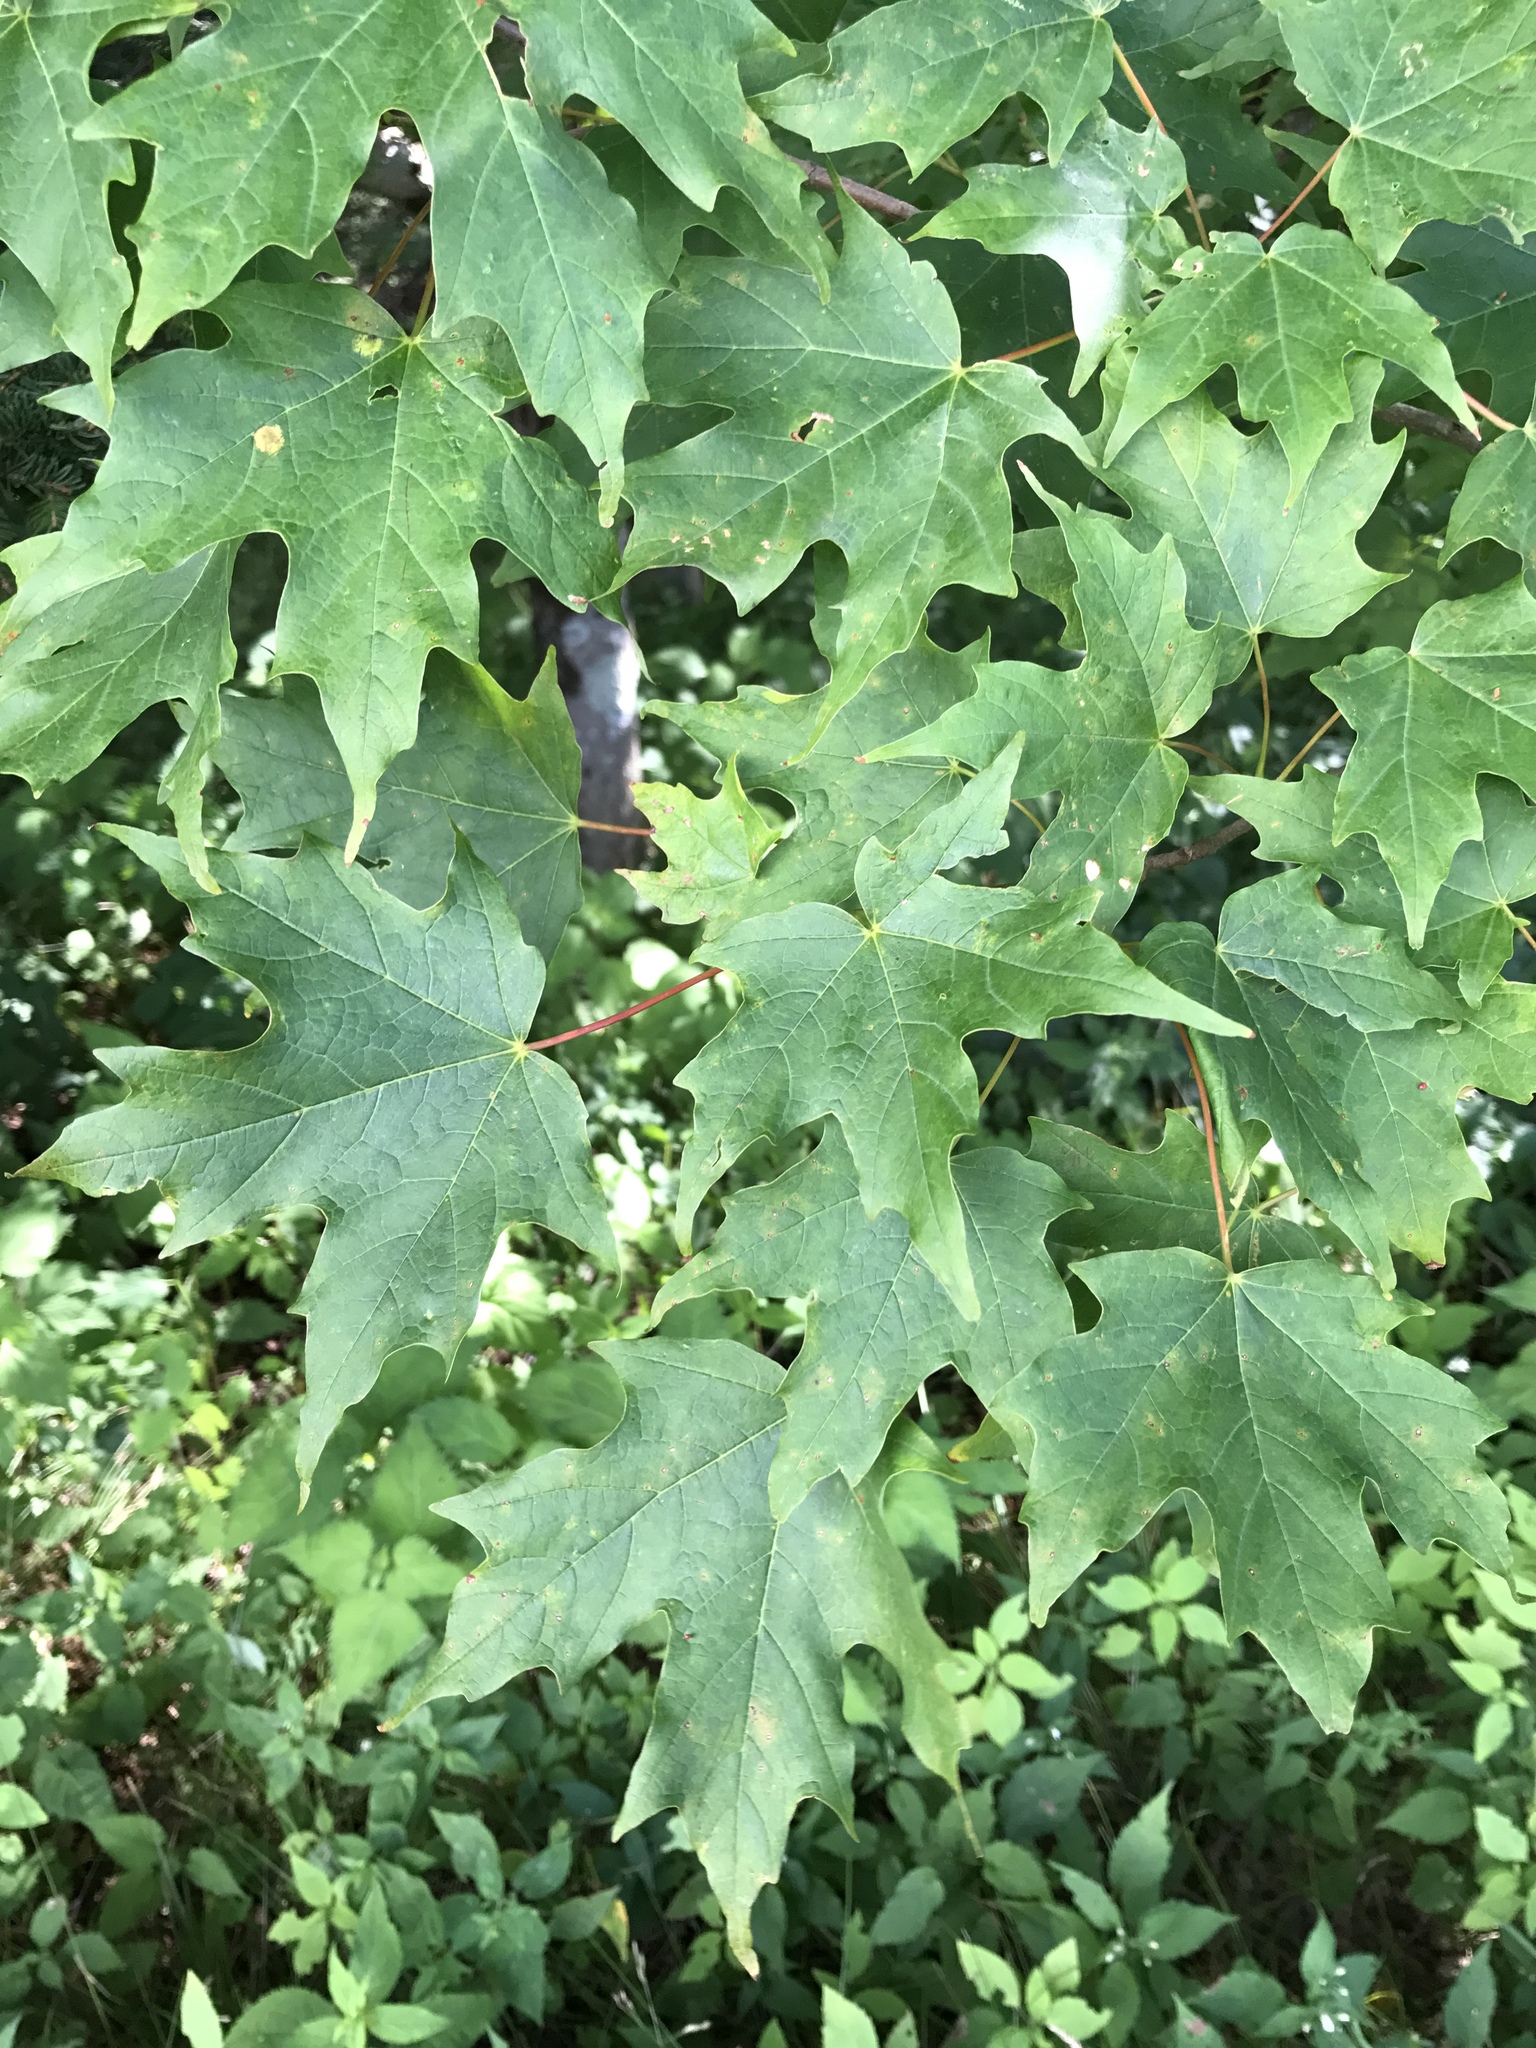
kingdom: Plantae
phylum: Tracheophyta
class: Magnoliopsida
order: Sapindales
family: Sapindaceae
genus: Acer
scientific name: Acer saccharum
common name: Sugar maple
